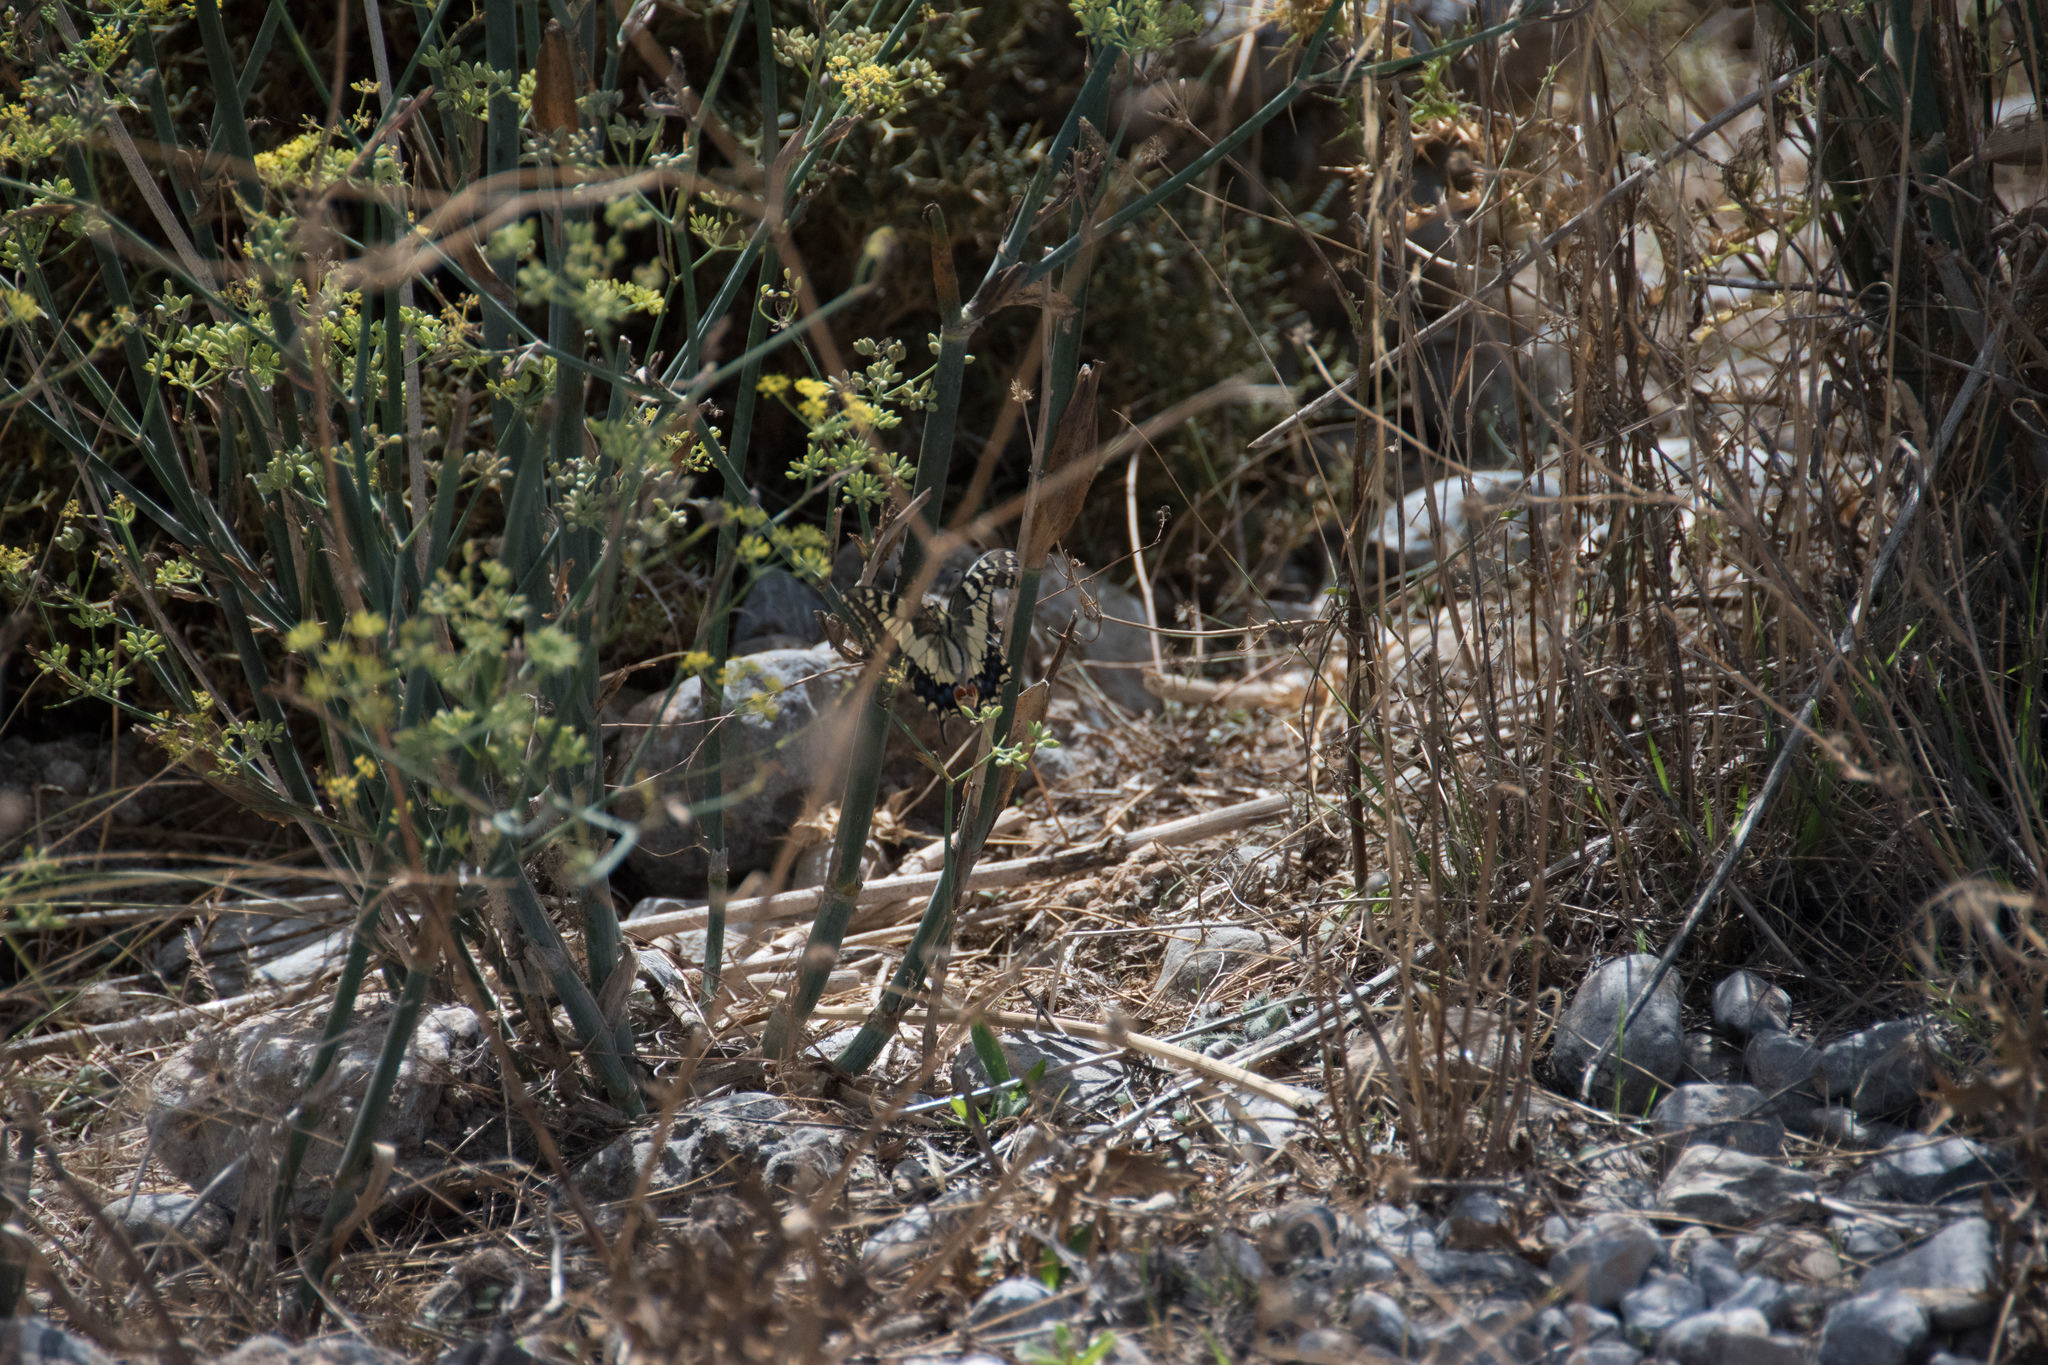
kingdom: Animalia
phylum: Arthropoda
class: Insecta
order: Lepidoptera
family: Papilionidae
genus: Papilio
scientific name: Papilio machaon
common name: Swallowtail
